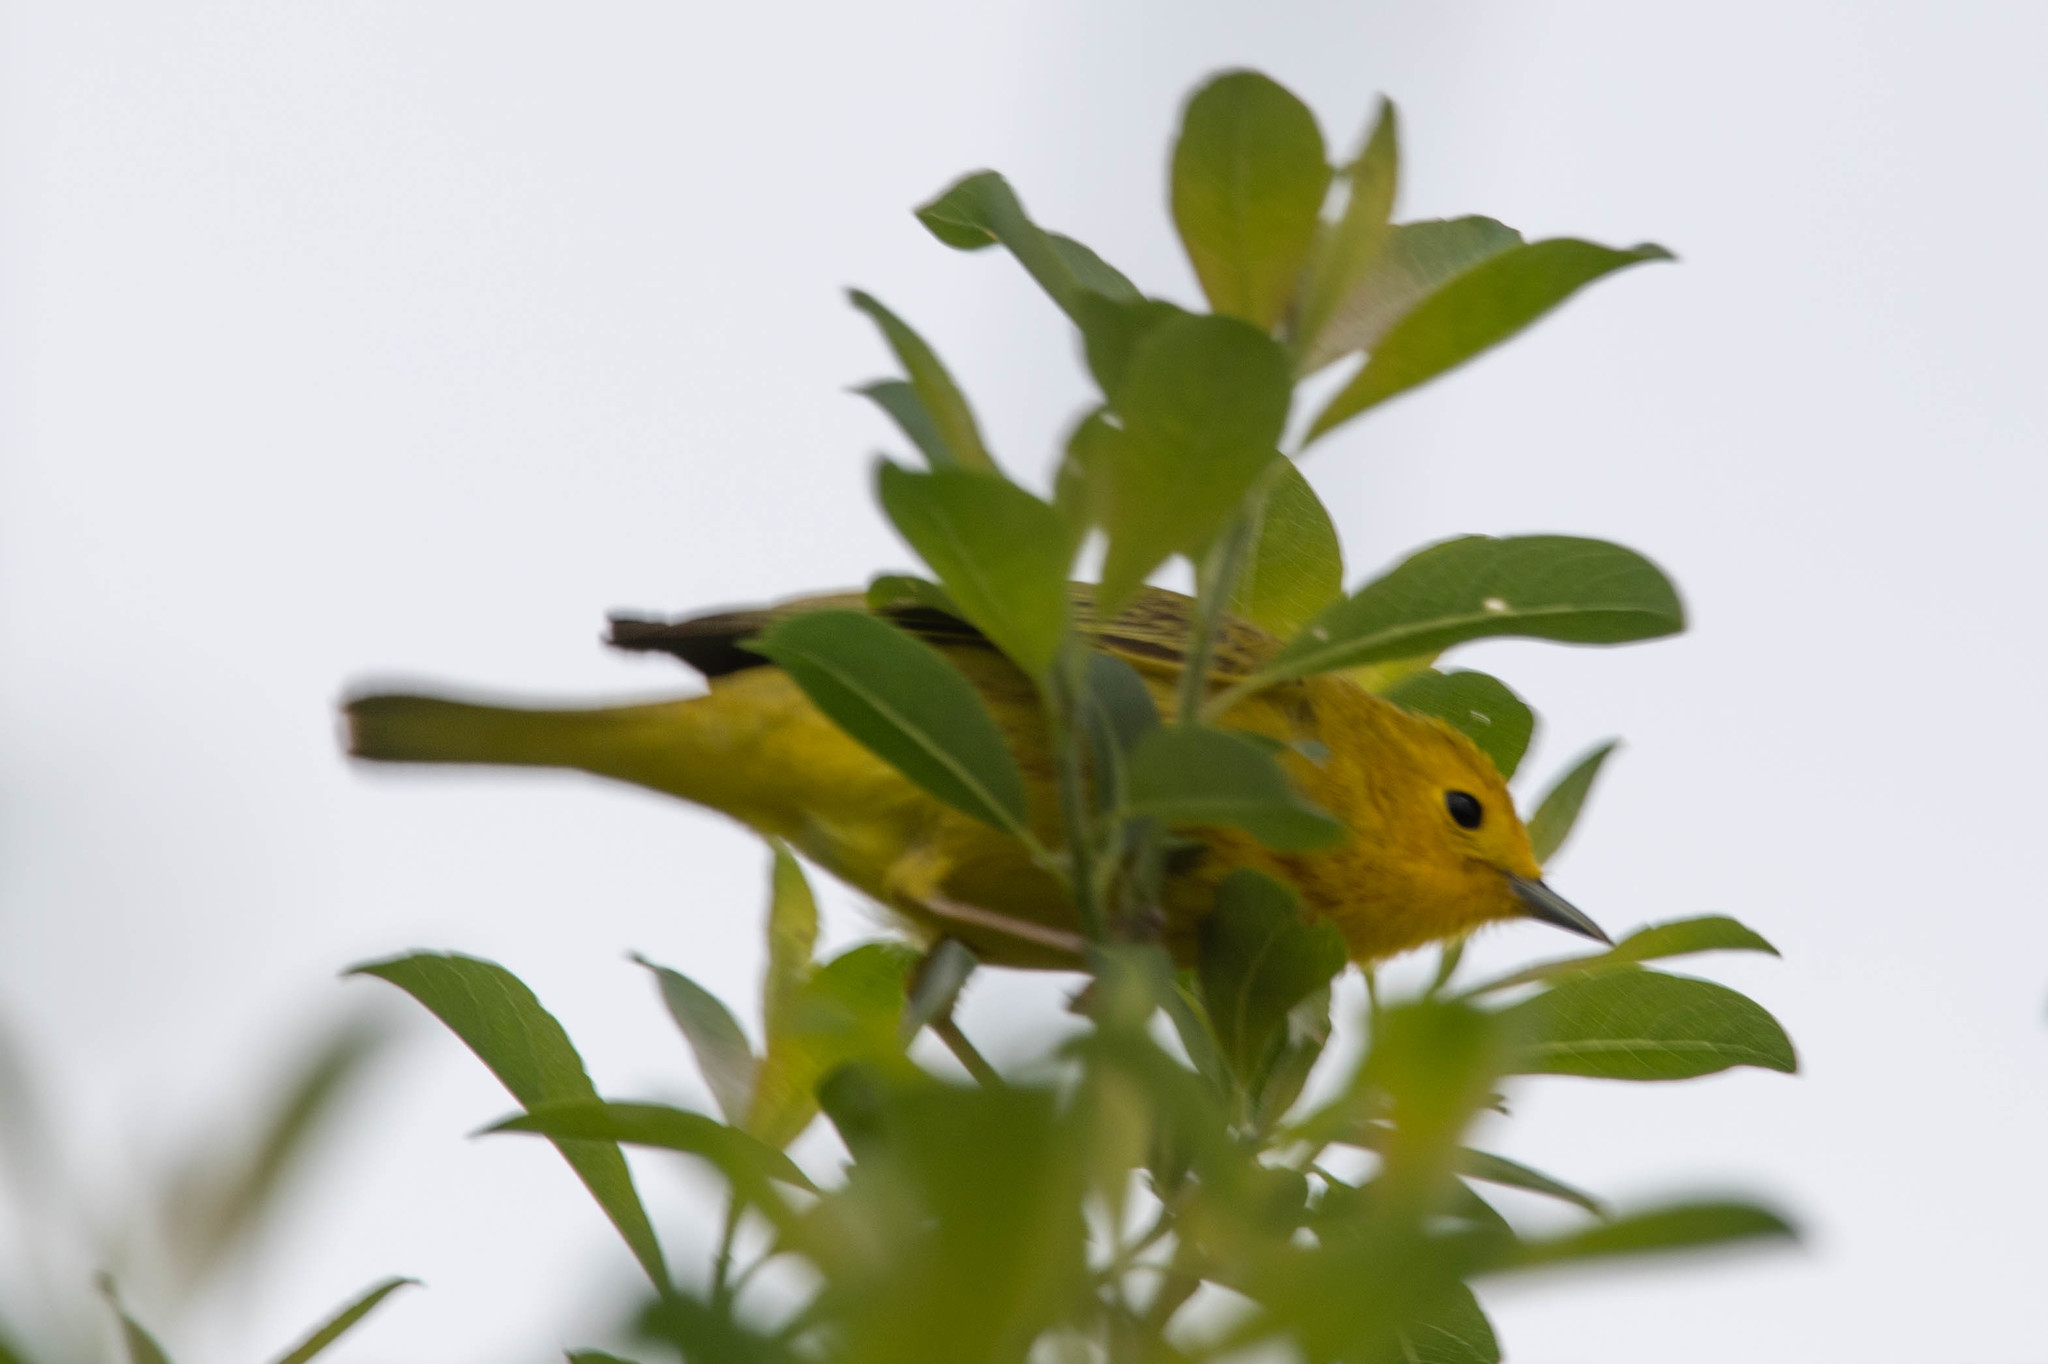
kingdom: Animalia
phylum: Chordata
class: Aves
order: Passeriformes
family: Parulidae
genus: Setophaga
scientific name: Setophaga petechia
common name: Yellow warbler
